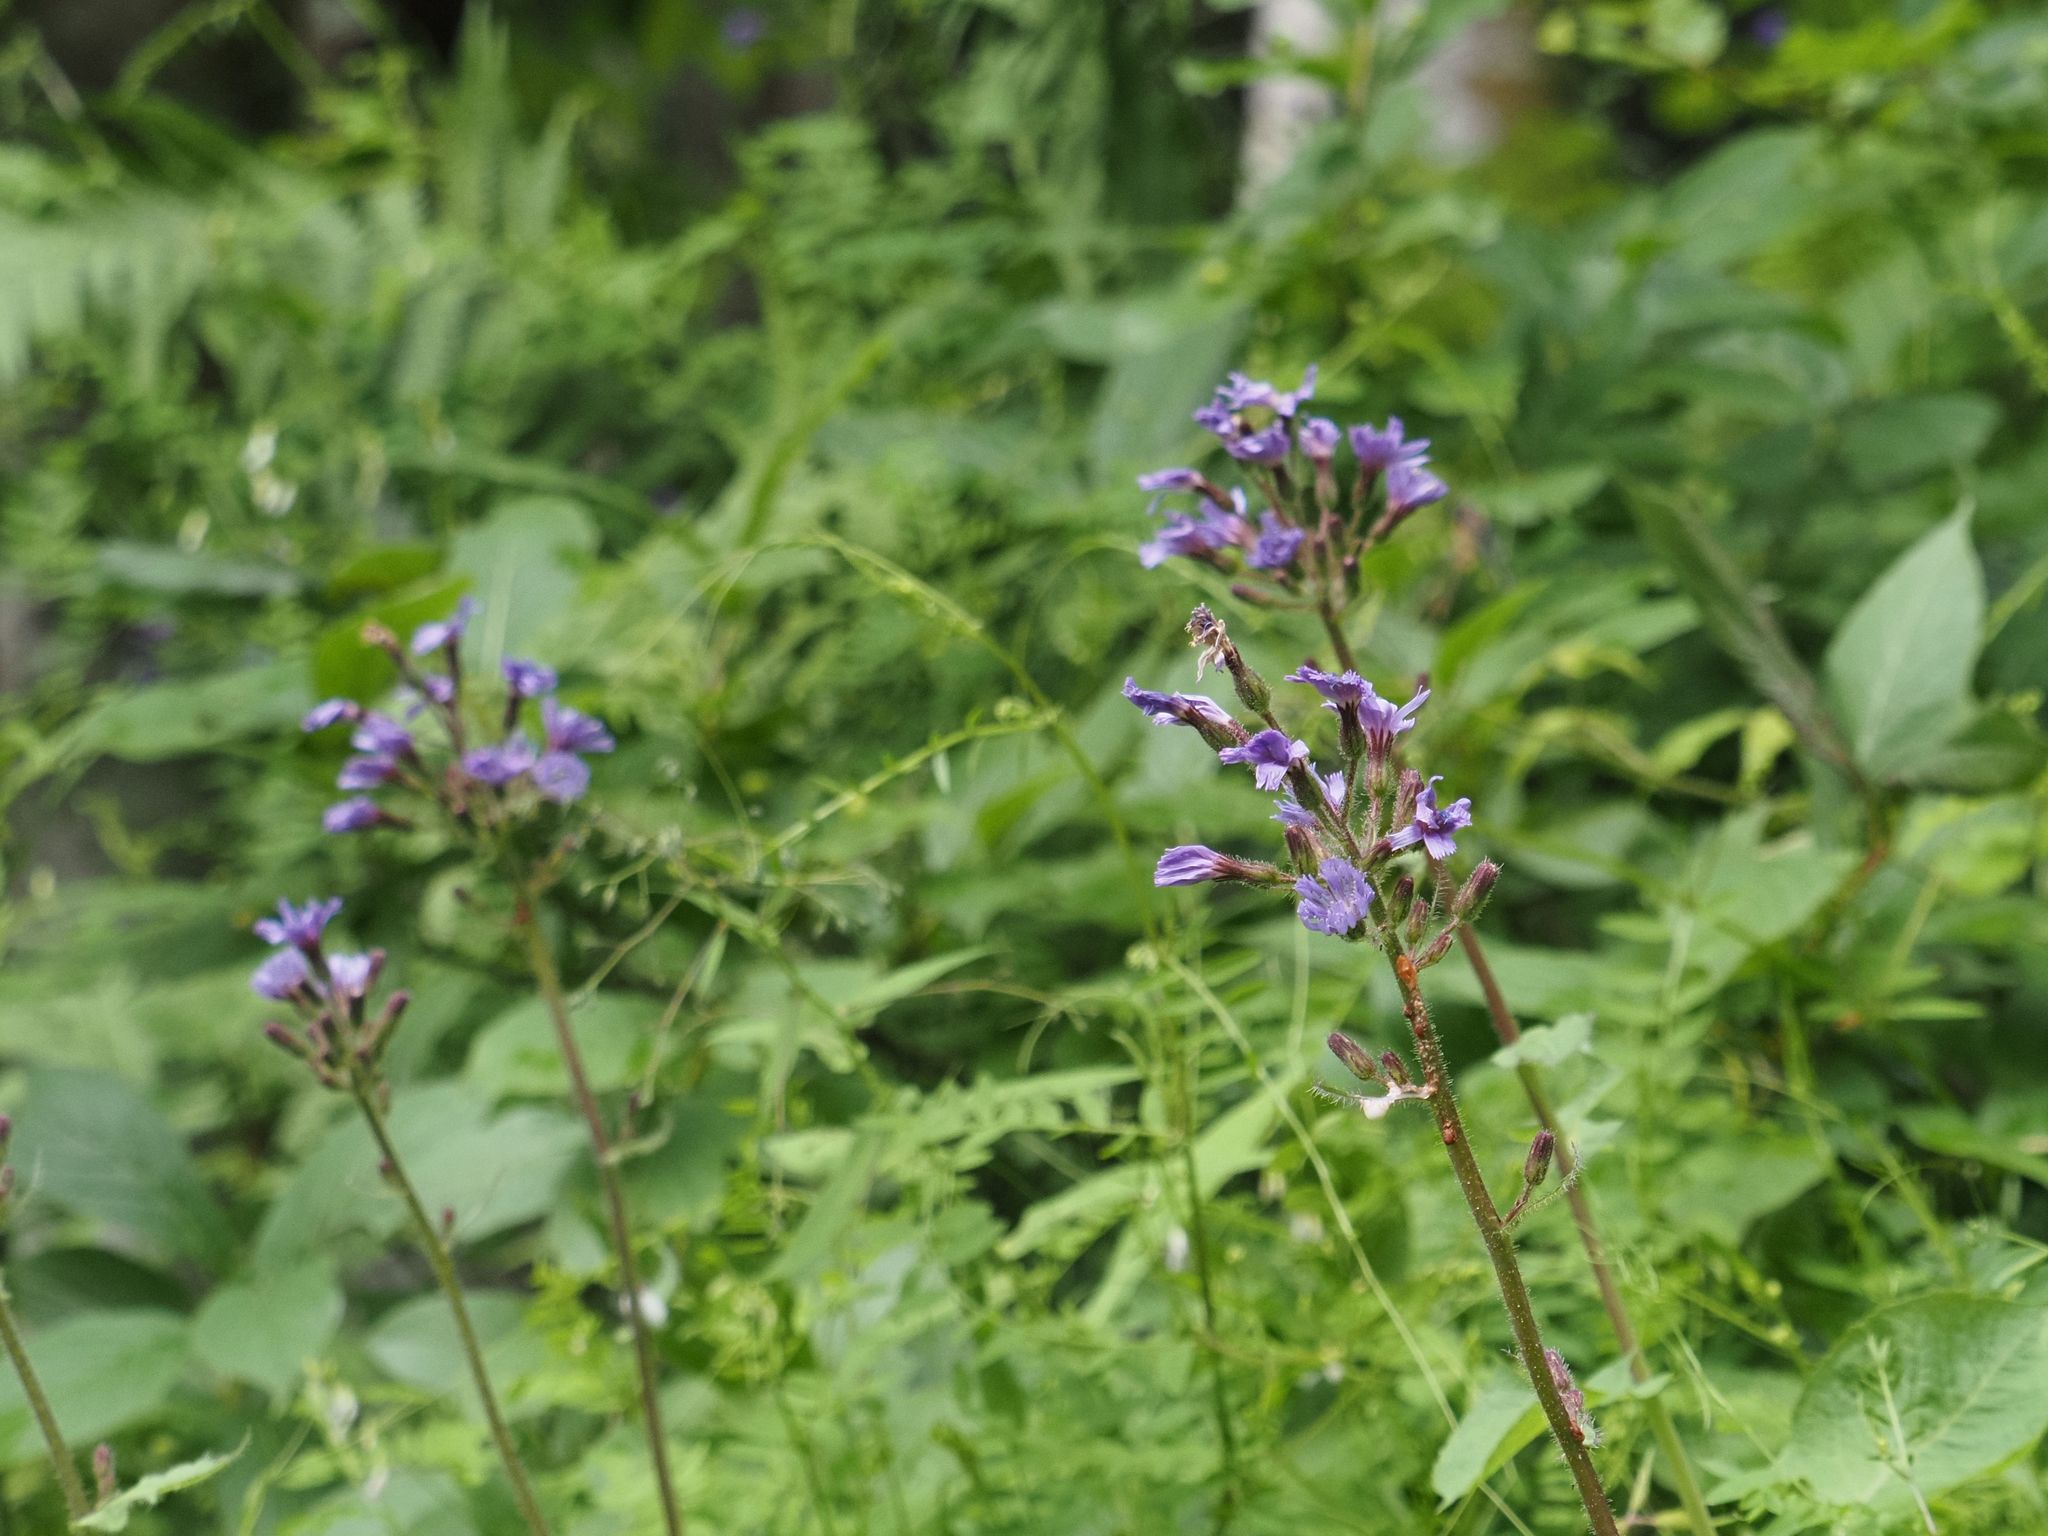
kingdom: Plantae
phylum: Tracheophyta
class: Magnoliopsida
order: Asterales
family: Asteraceae
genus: Cicerbita
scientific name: Cicerbita alpina
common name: Alpine blue-sow-thistle
